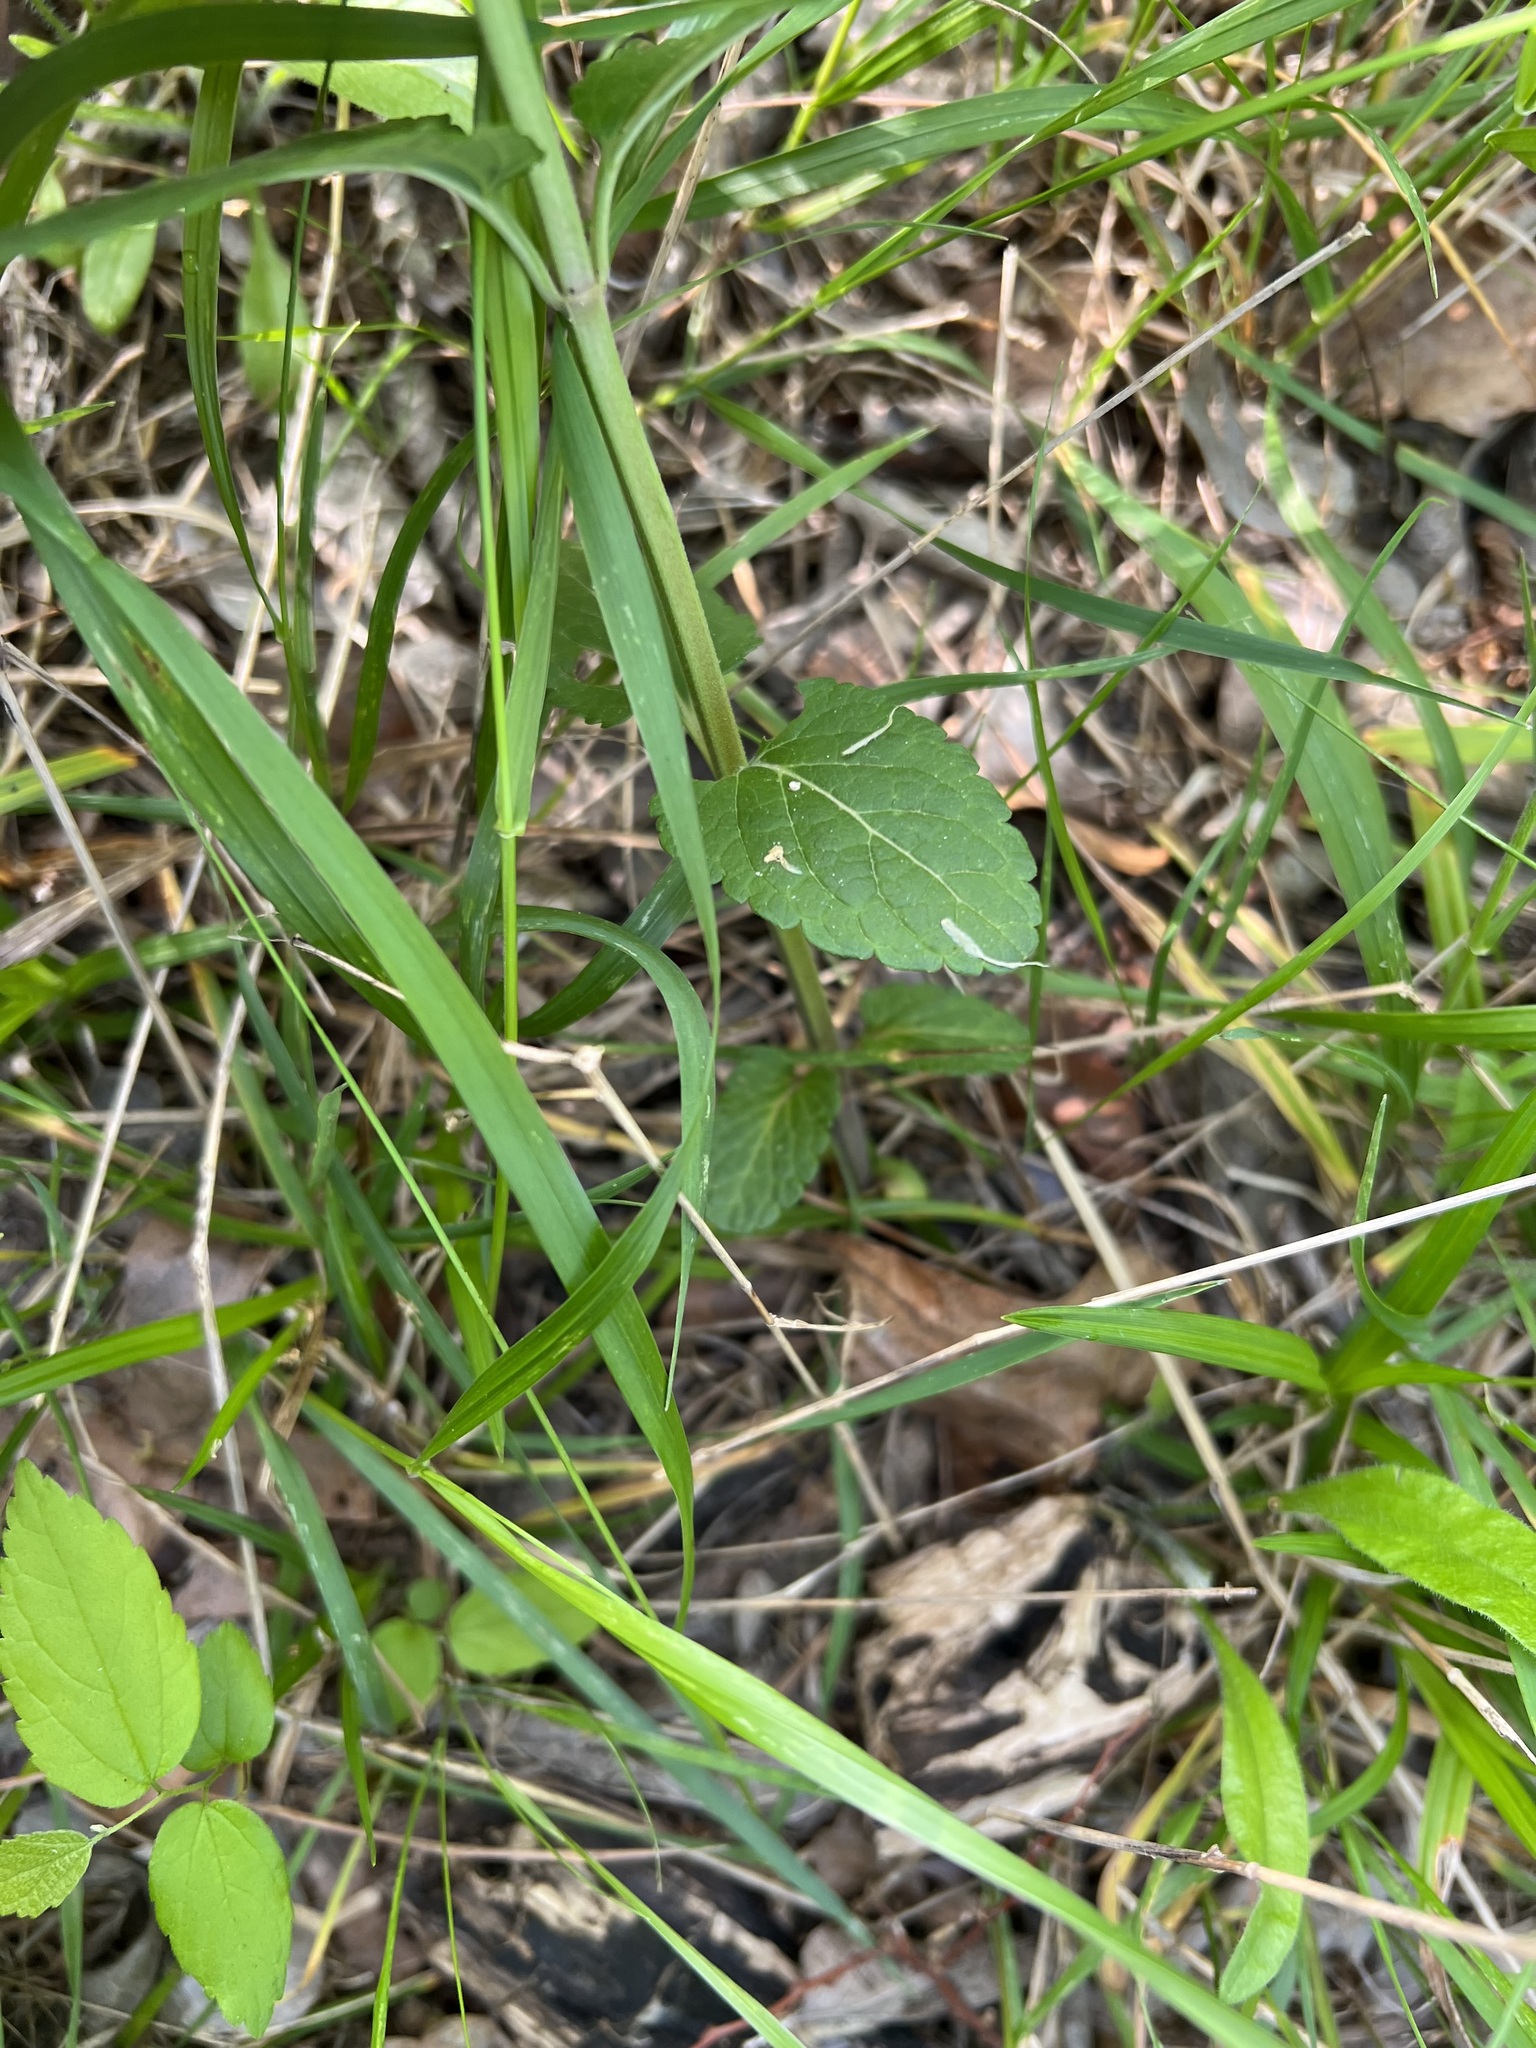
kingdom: Plantae
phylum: Tracheophyta
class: Magnoliopsida
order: Lamiales
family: Lamiaceae
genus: Teucrium
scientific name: Teucrium canadense
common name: American germander
